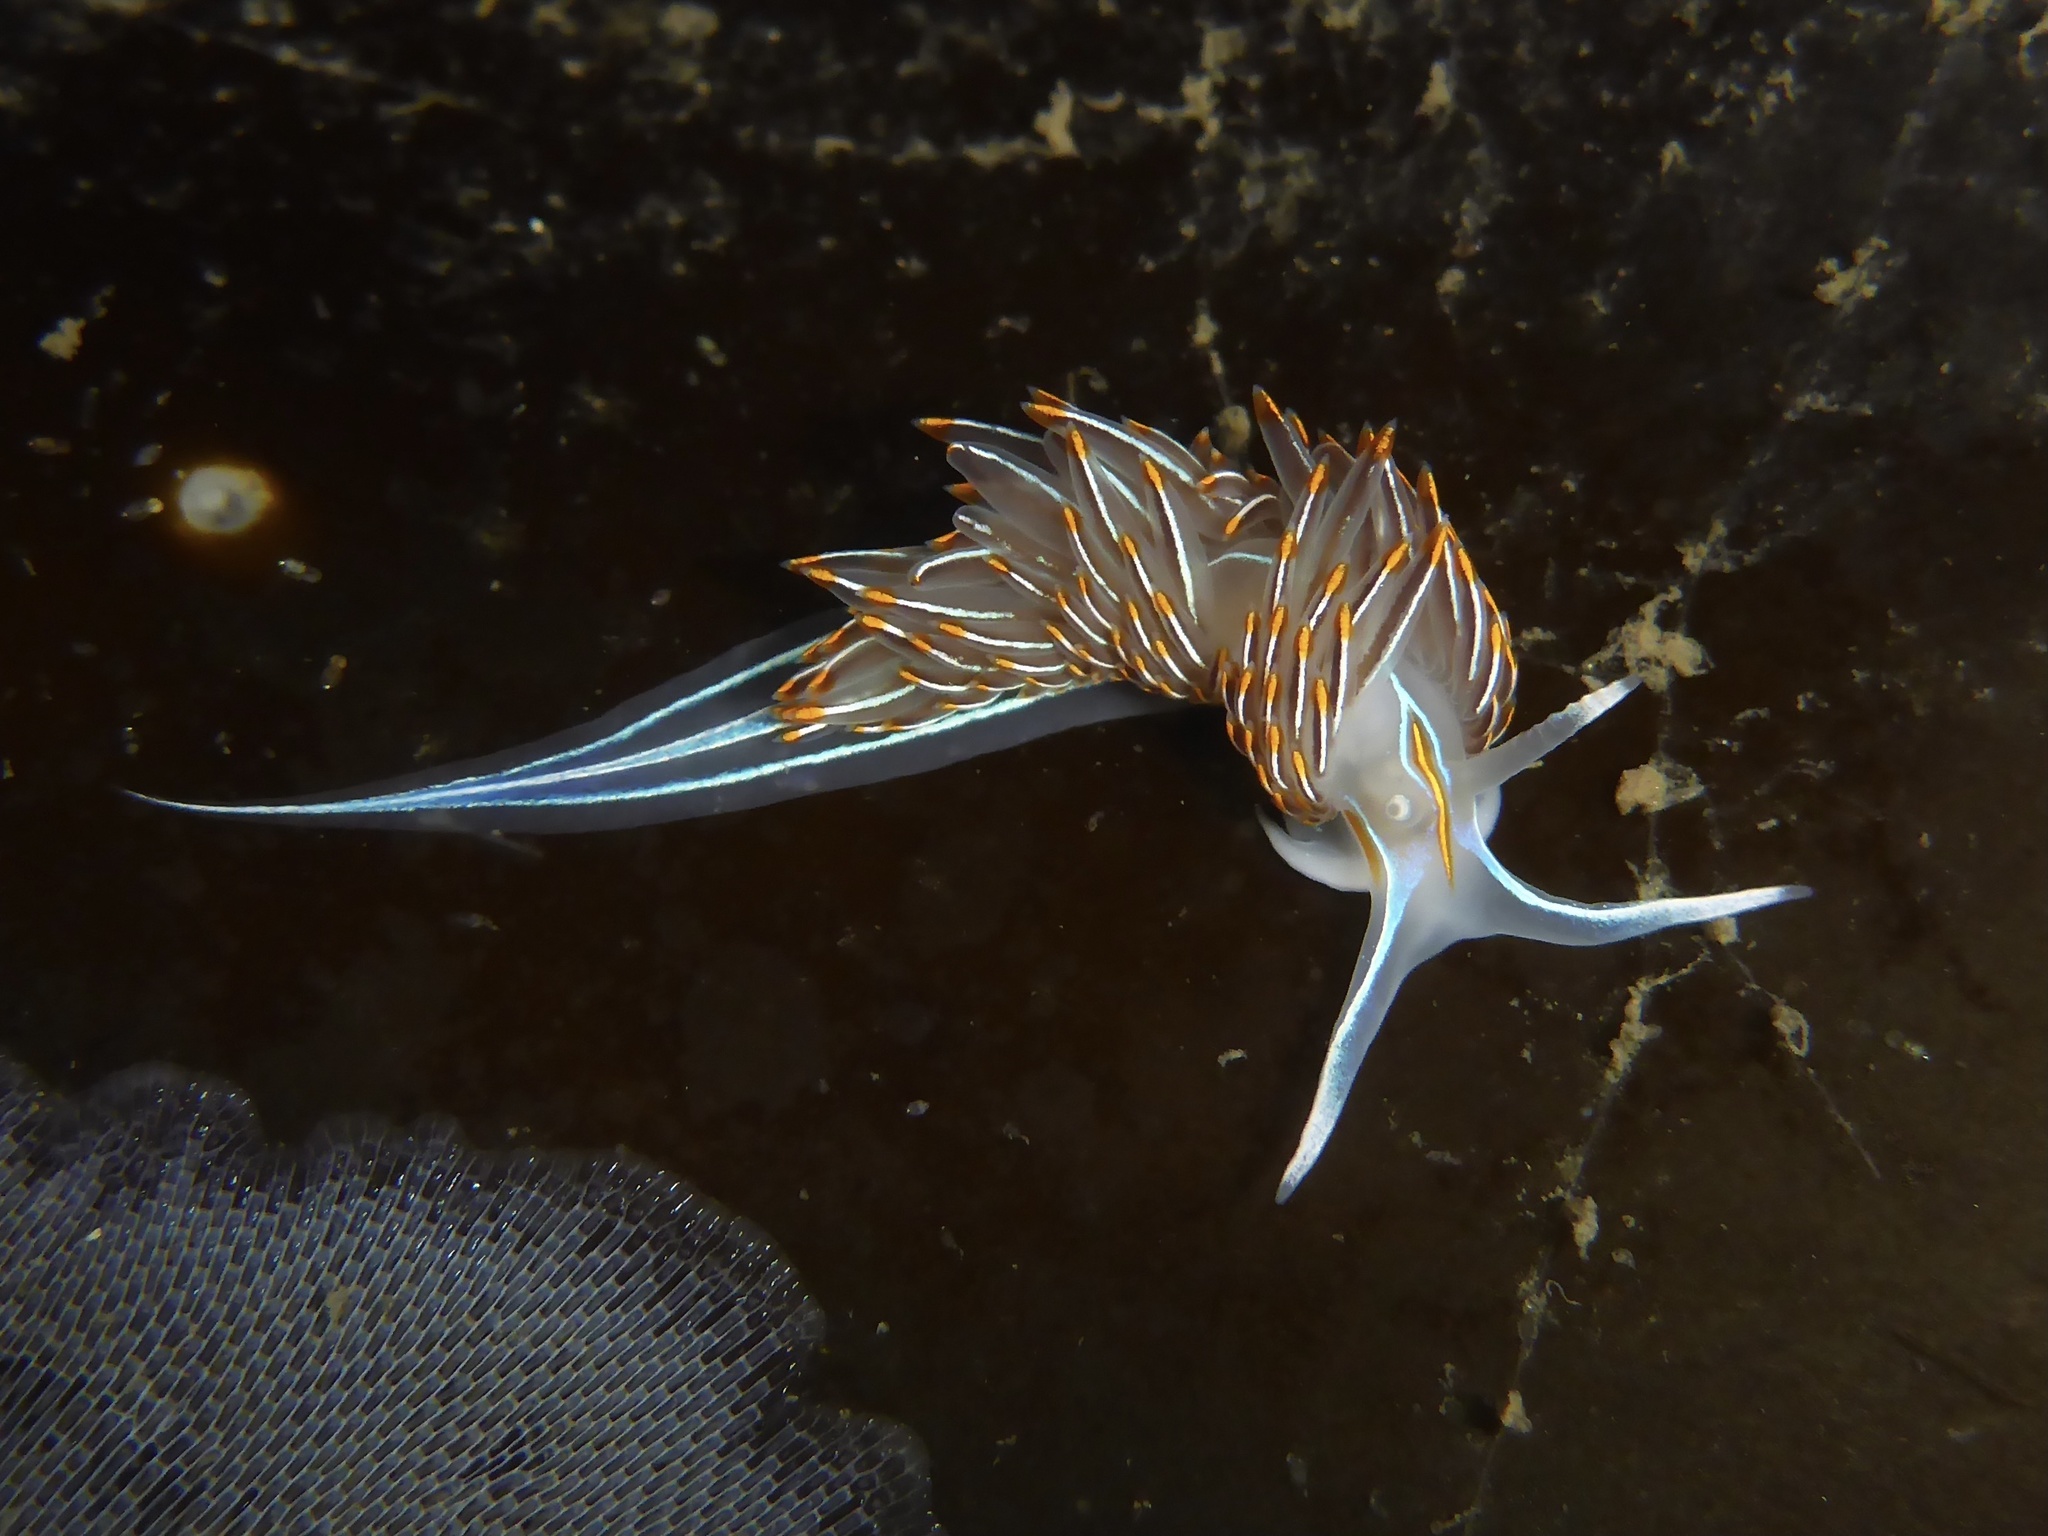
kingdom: Animalia
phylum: Mollusca
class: Gastropoda
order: Nudibranchia
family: Myrrhinidae
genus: Hermissenda
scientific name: Hermissenda crassicornis
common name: Hermissenda
